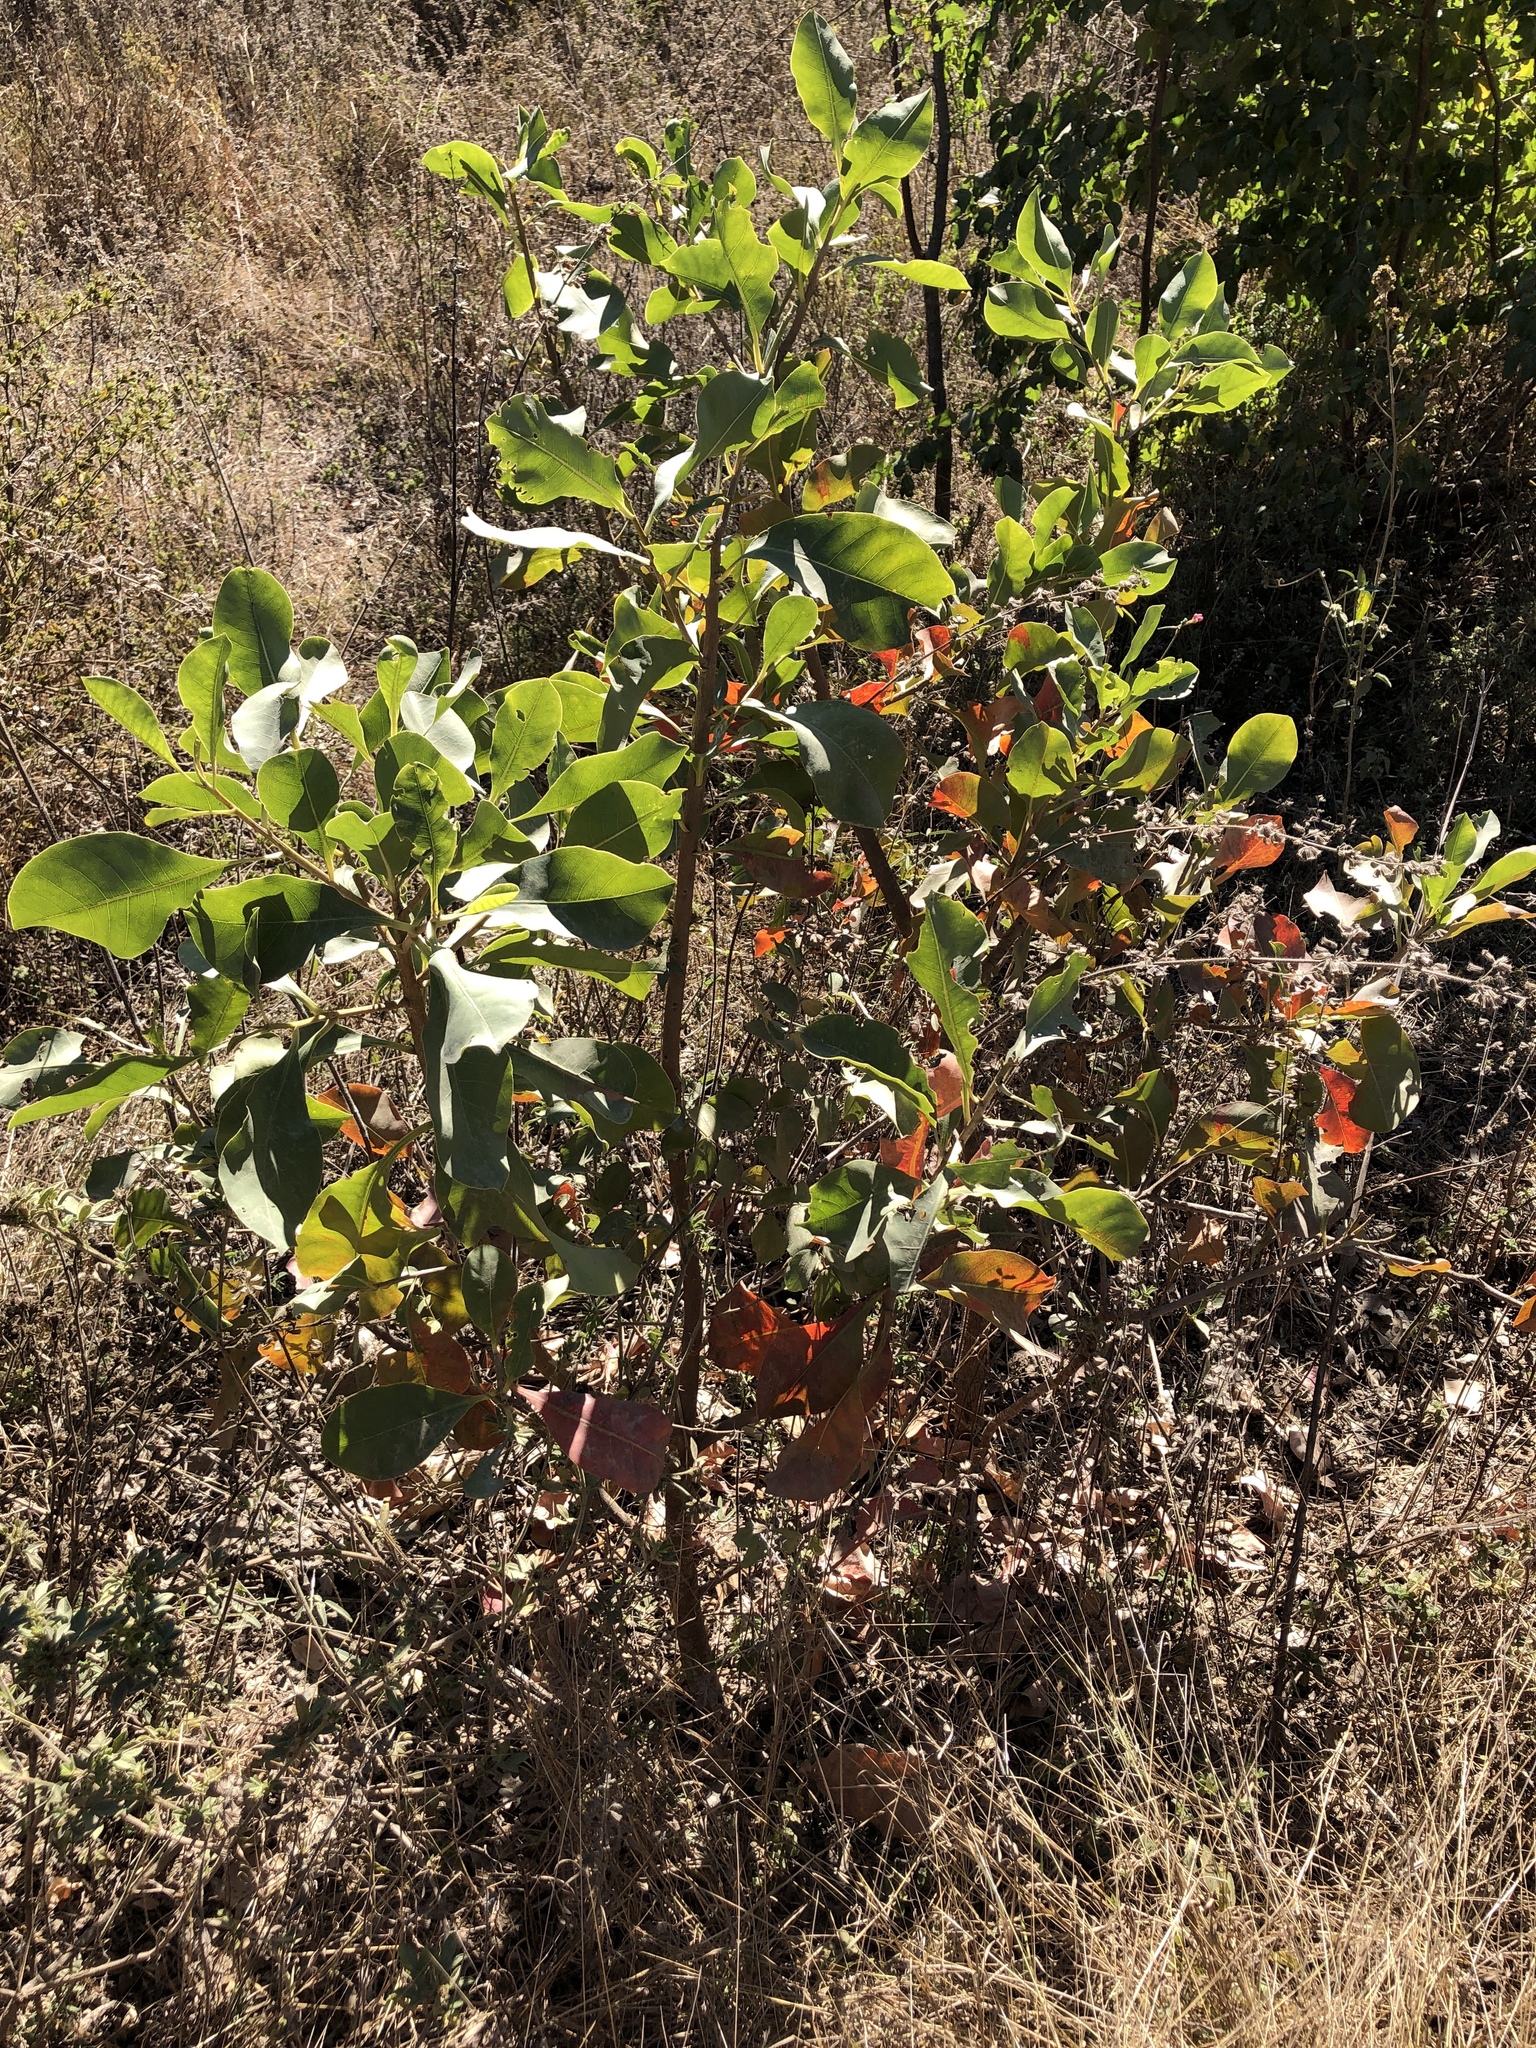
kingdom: Plantae
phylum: Tracheophyta
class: Magnoliopsida
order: Ericales
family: Lecythidaceae
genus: Planchonia
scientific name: Planchonia careya
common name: Cockatoo-apple
